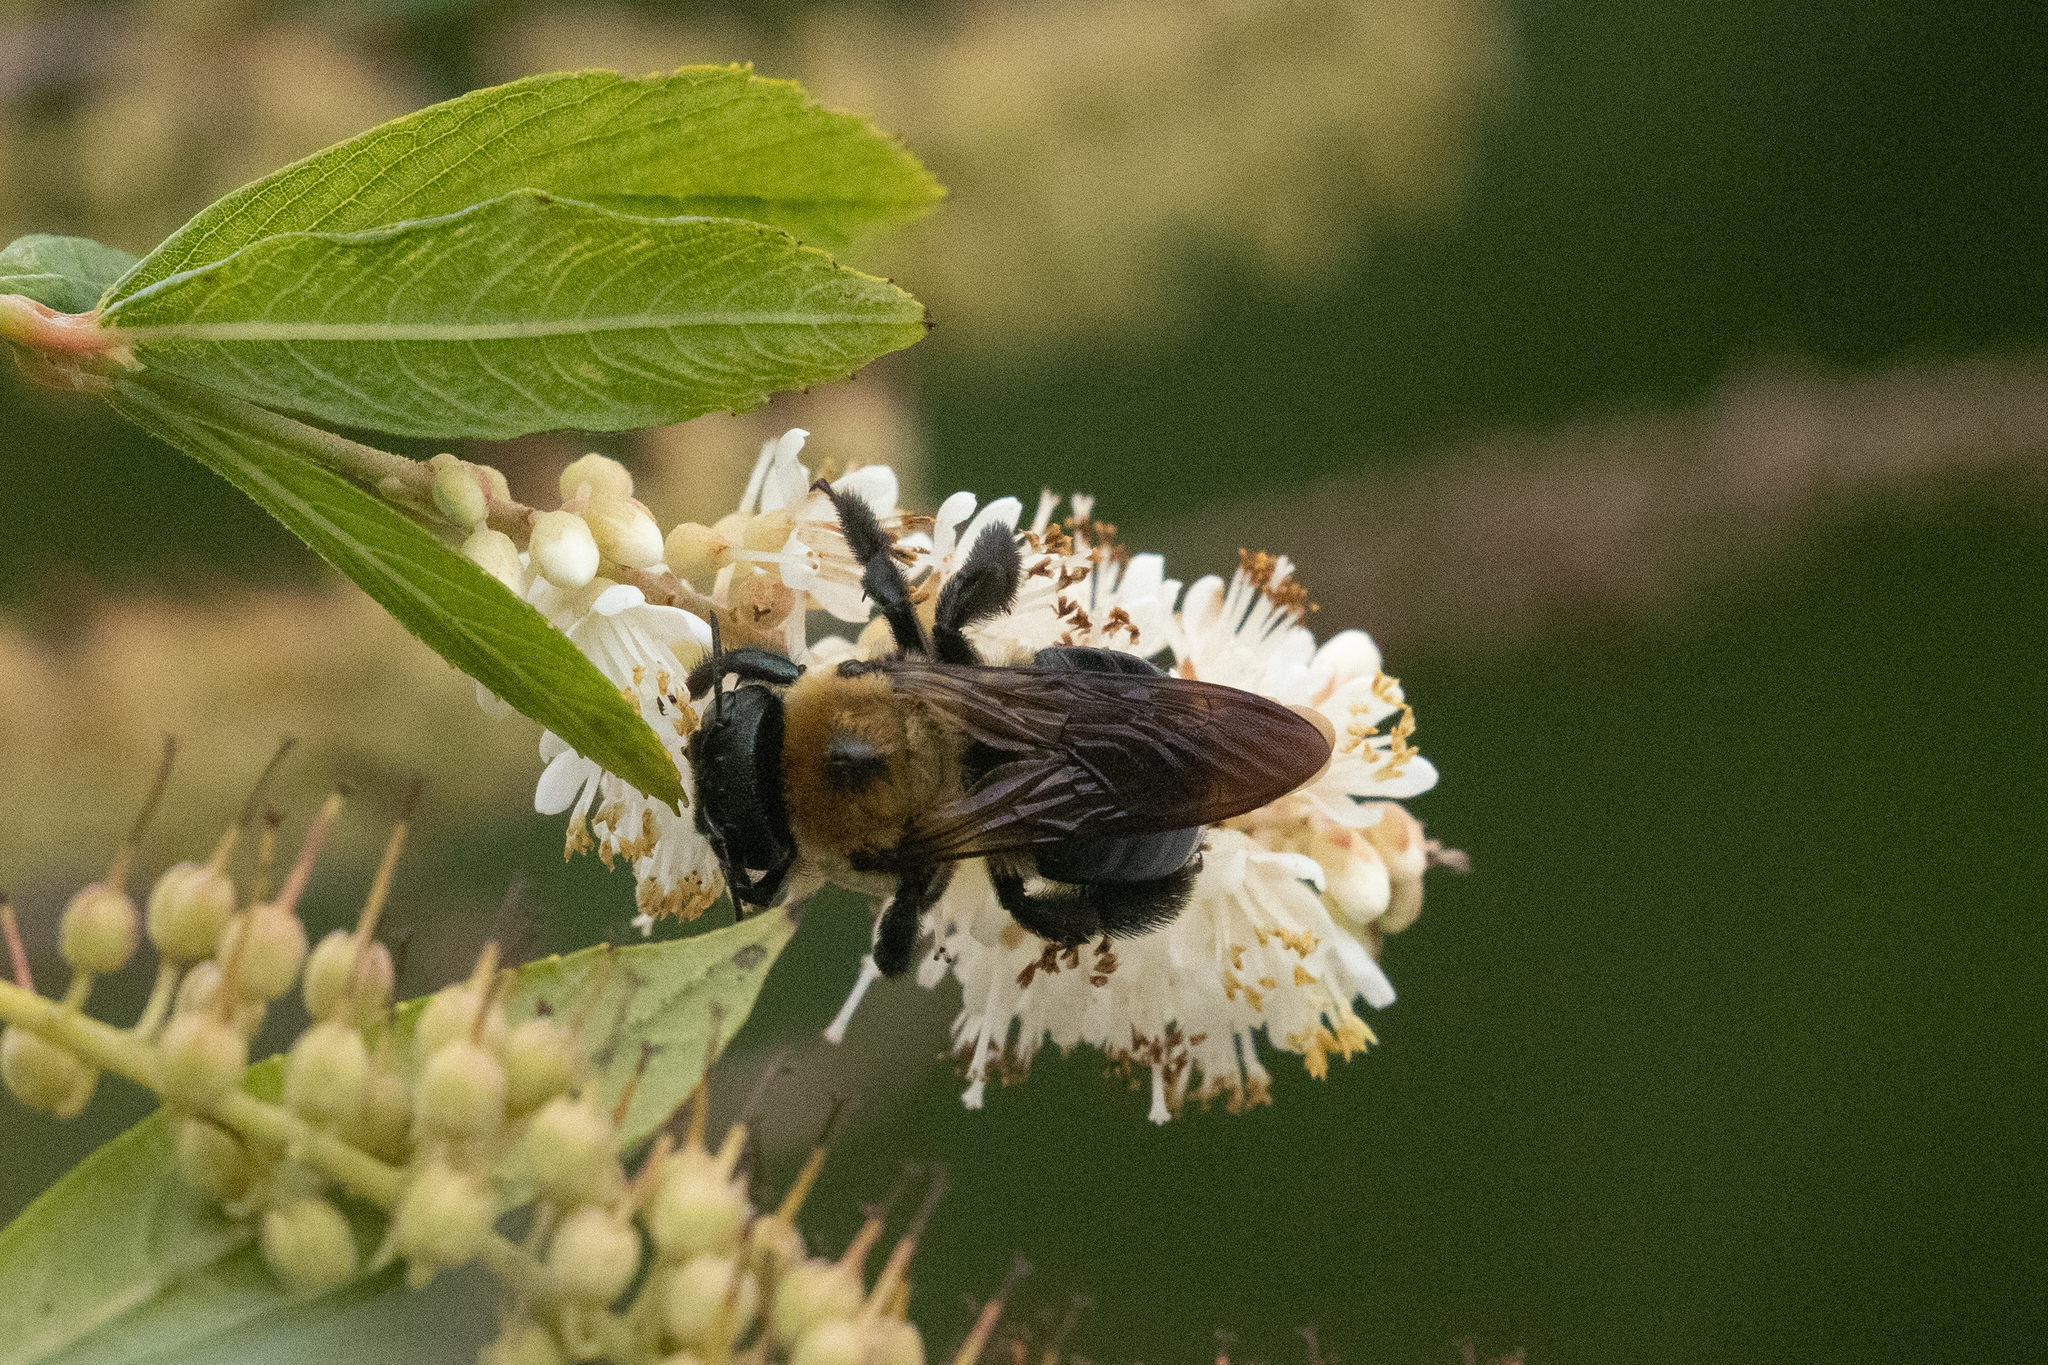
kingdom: Animalia
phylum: Arthropoda
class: Insecta
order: Hymenoptera
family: Apidae
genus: Xylocopa
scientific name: Xylocopa virginica
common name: Carpenter bee
